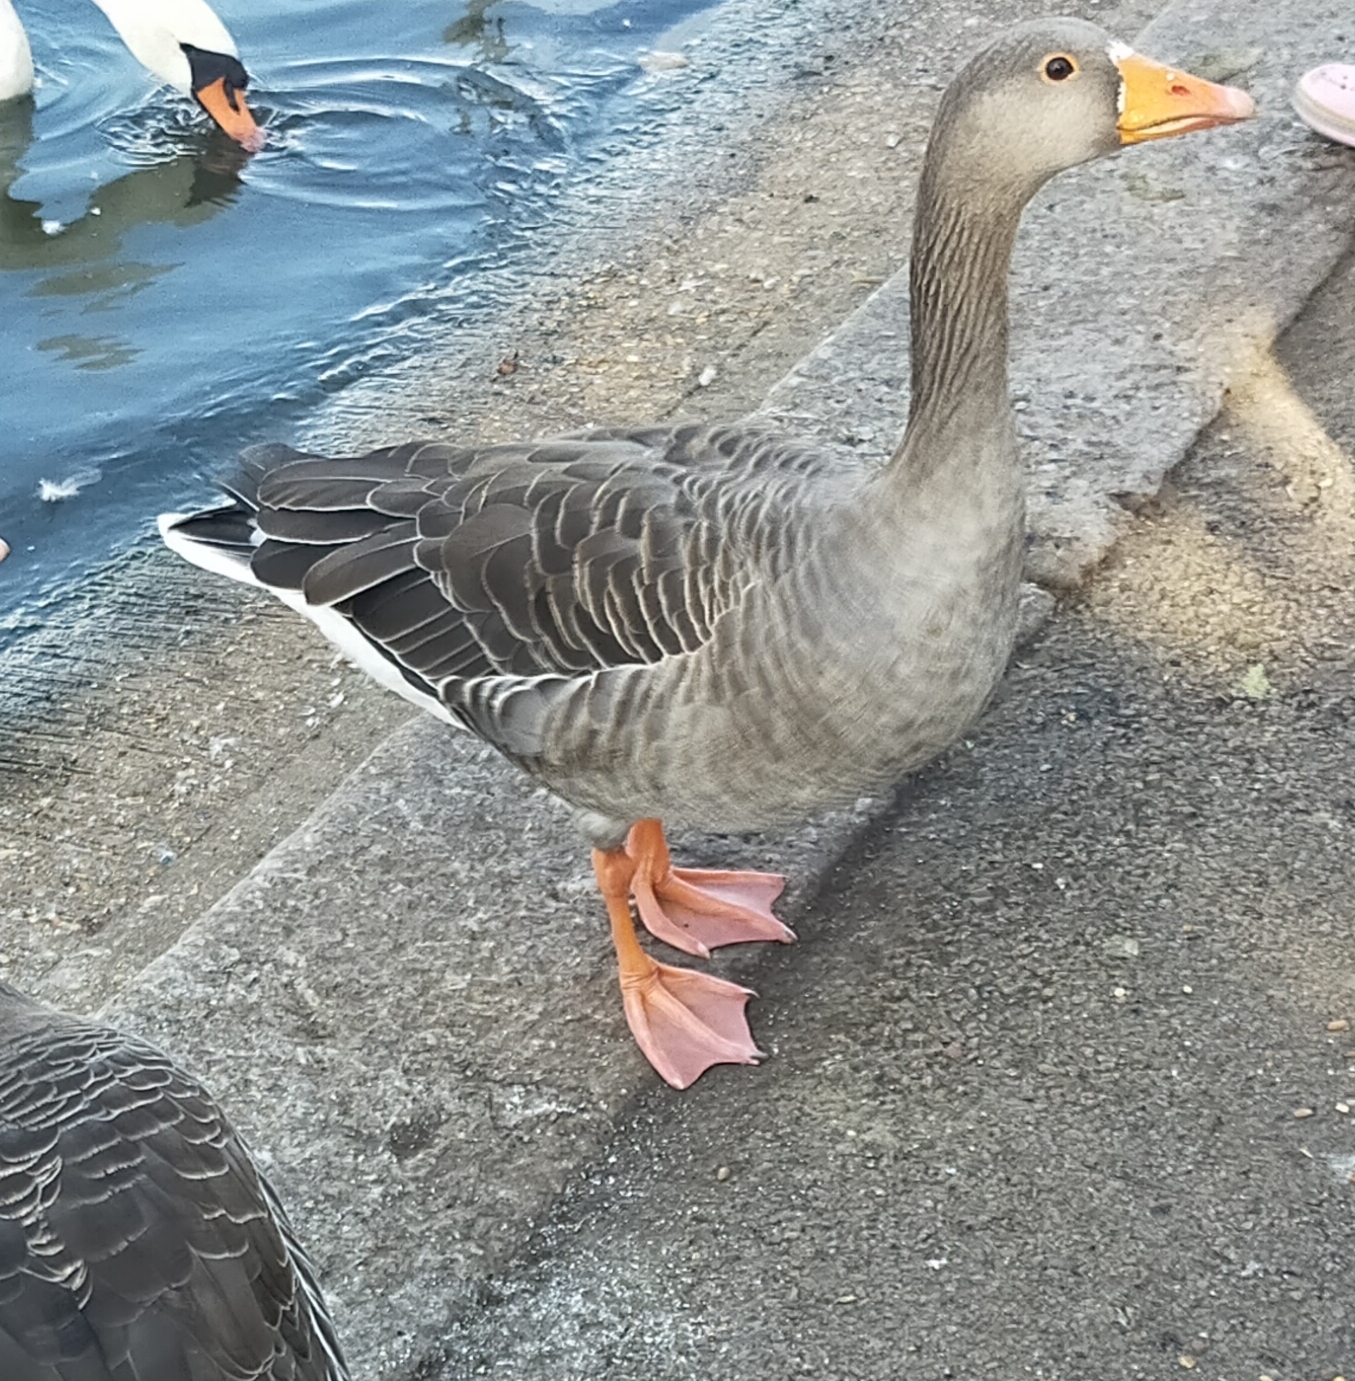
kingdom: Animalia
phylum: Chordata
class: Aves
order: Anseriformes
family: Anatidae
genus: Anser
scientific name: Anser anser
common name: Greylag goose
